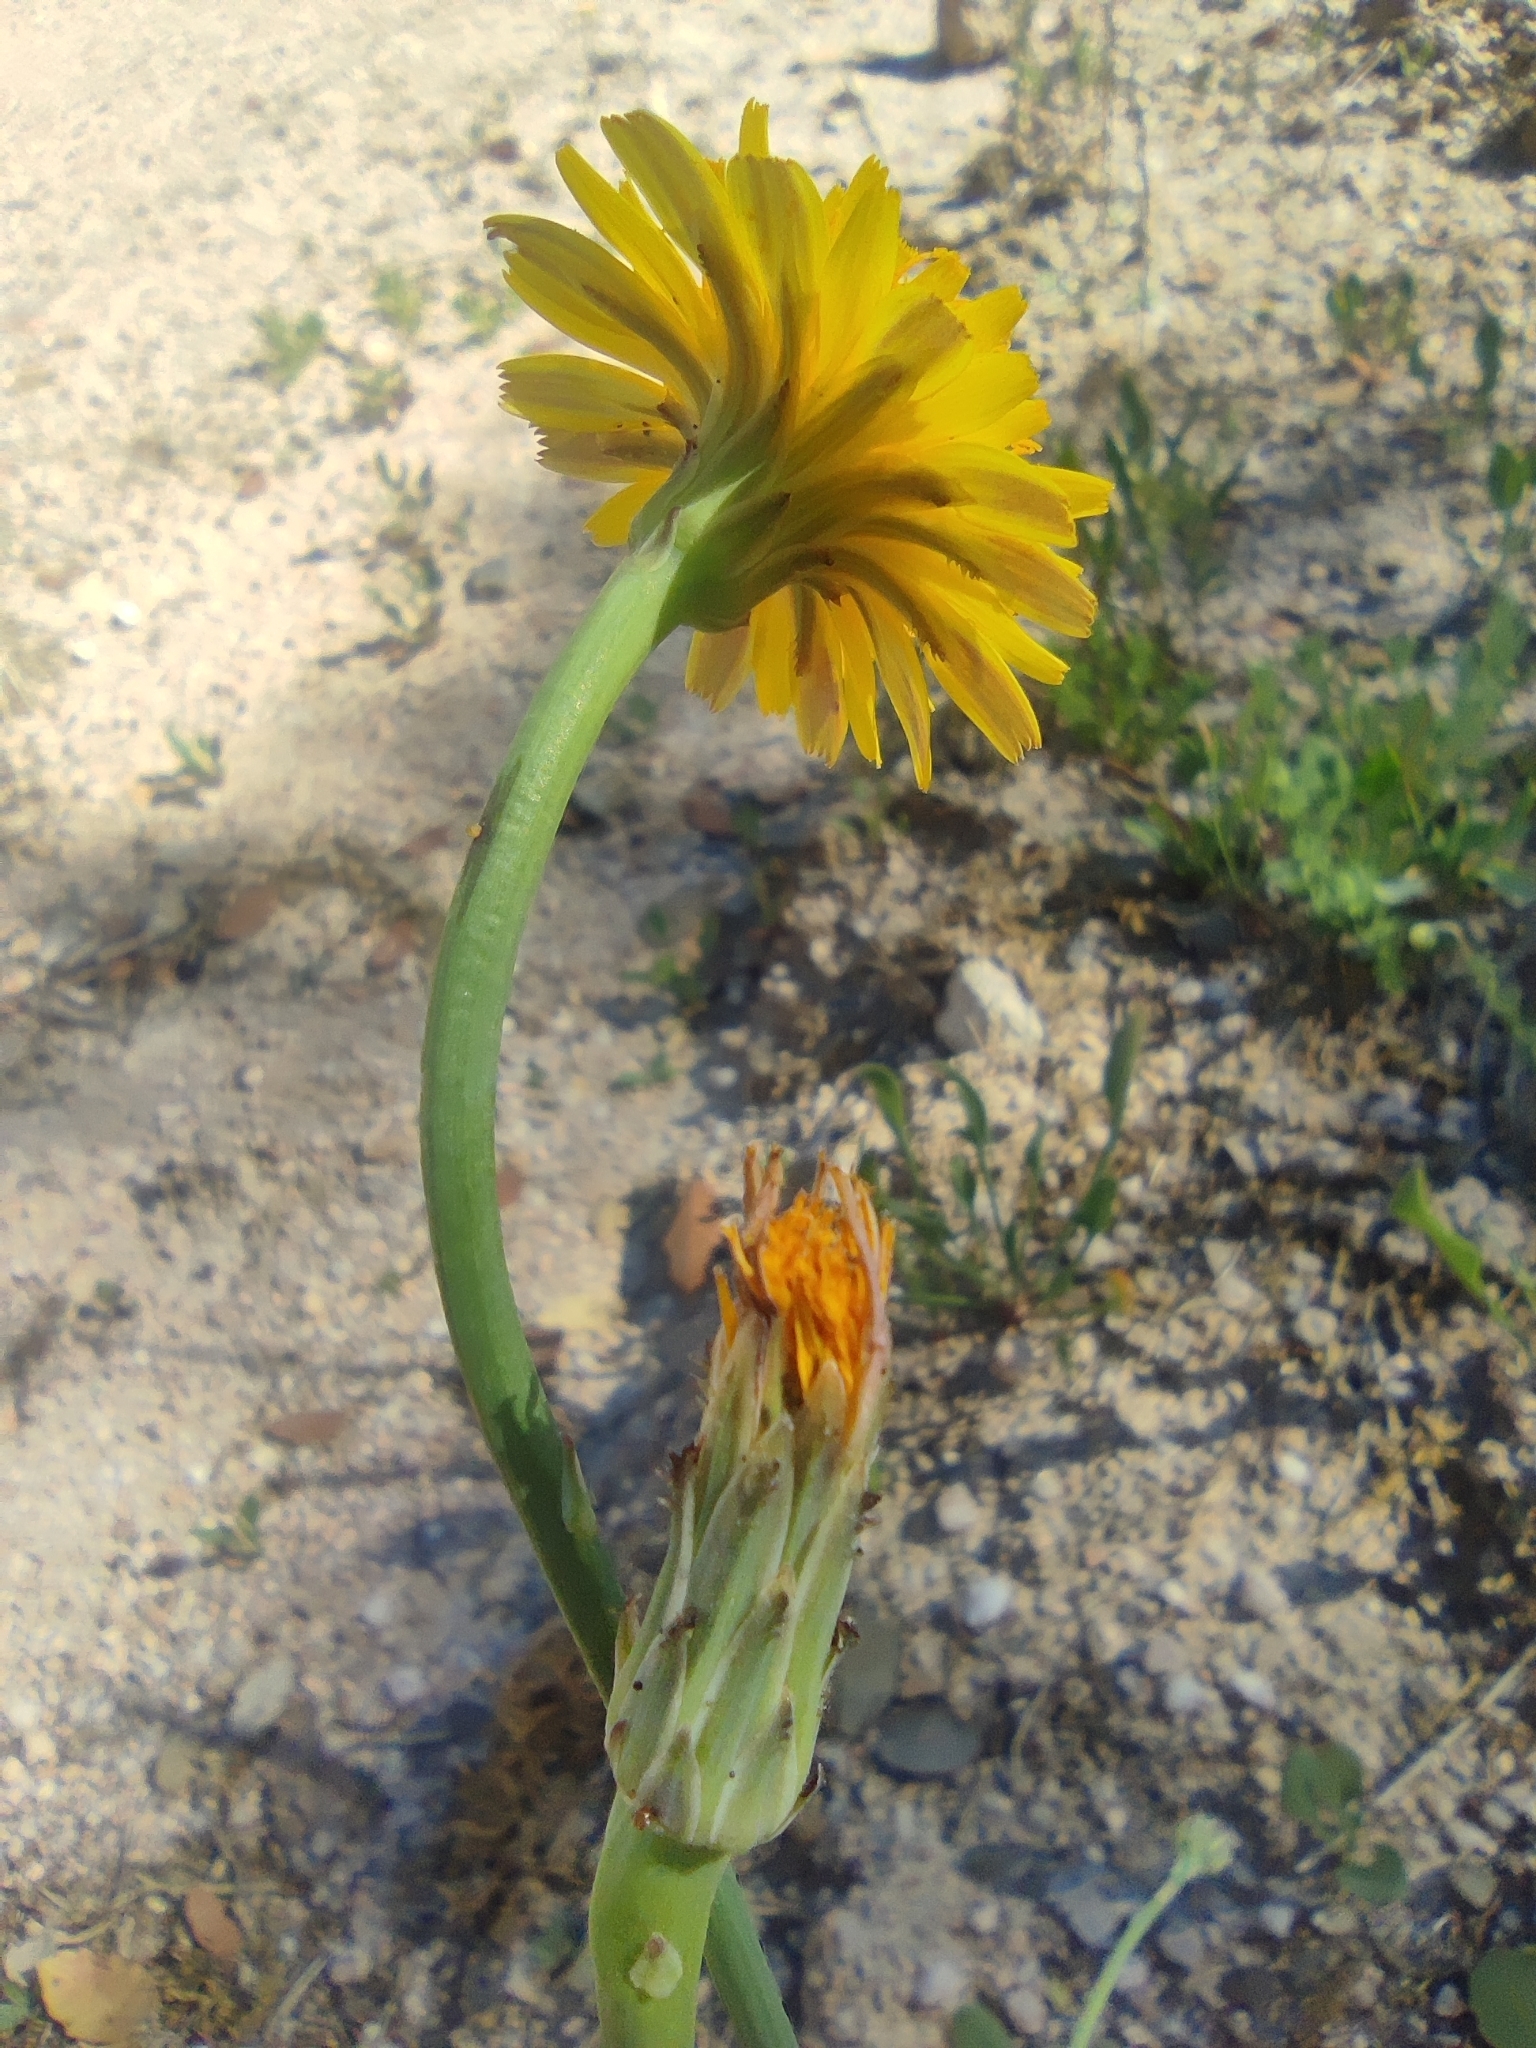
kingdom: Plantae
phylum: Tracheophyta
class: Magnoliopsida
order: Asterales
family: Asteraceae
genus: Hypochaeris
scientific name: Hypochaeris radicata
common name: Flatweed
